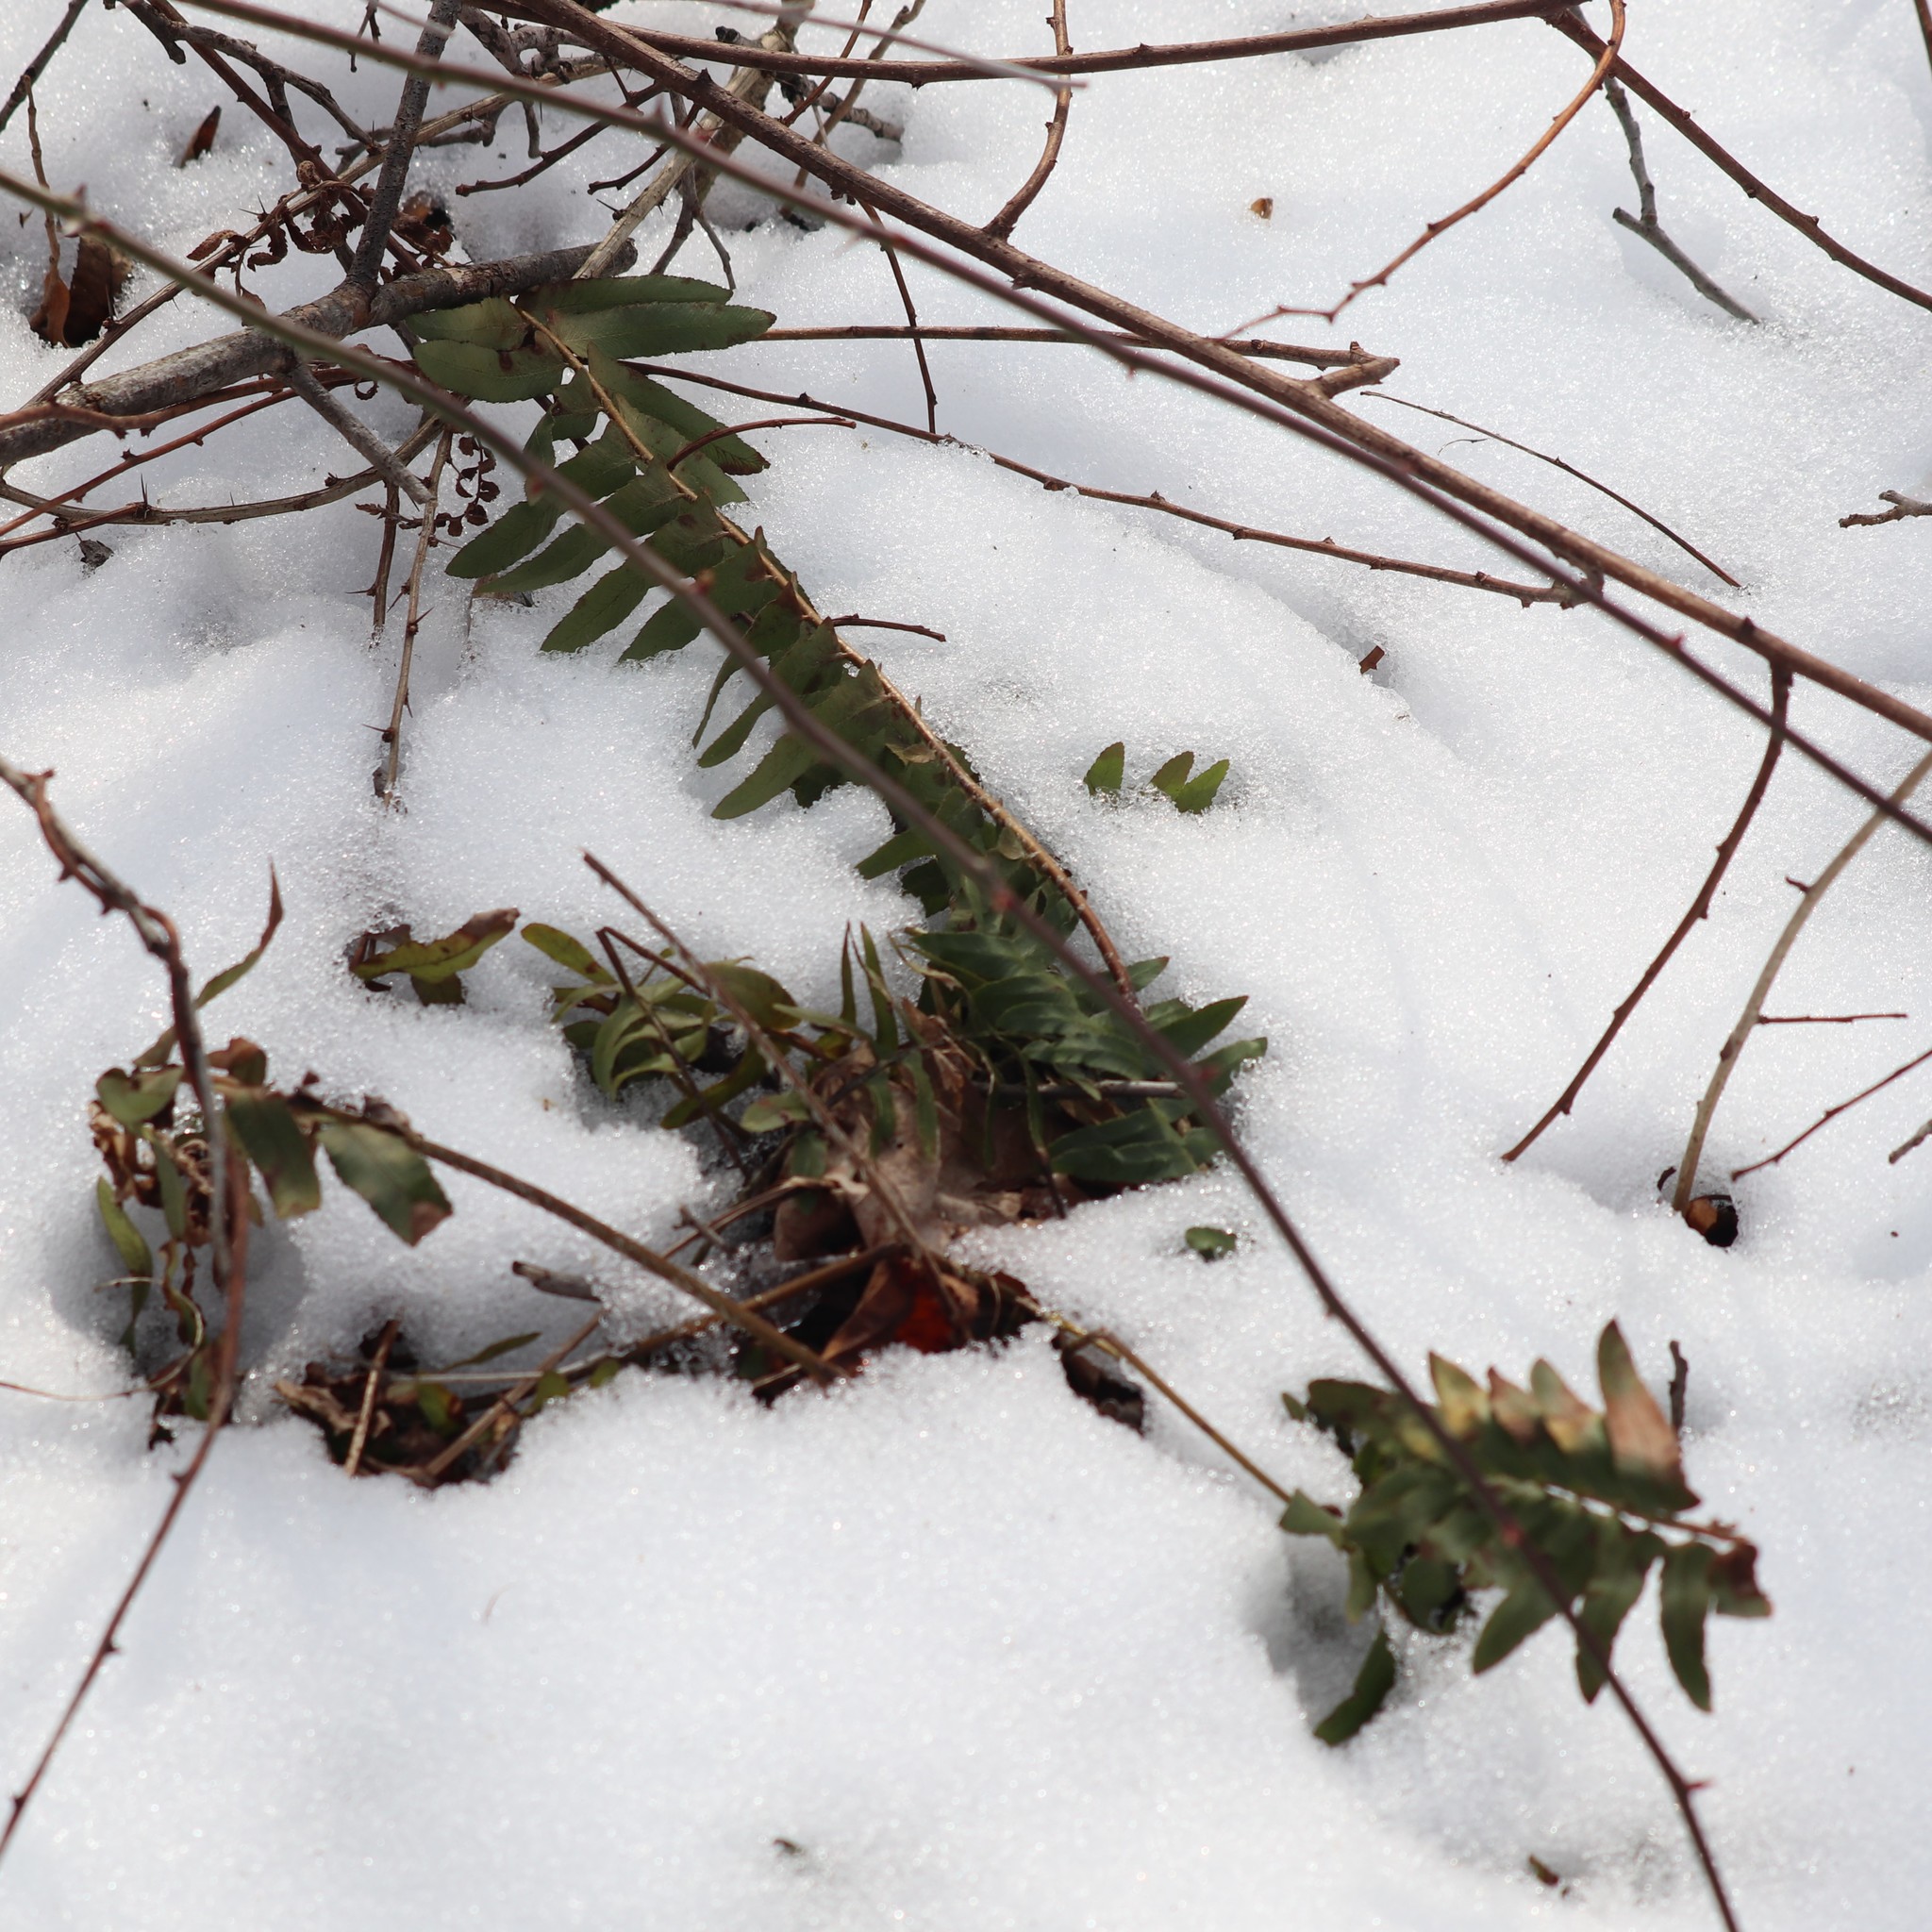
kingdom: Plantae
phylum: Tracheophyta
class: Polypodiopsida
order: Polypodiales
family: Dryopteridaceae
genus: Polystichum
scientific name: Polystichum acrostichoides
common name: Christmas fern
